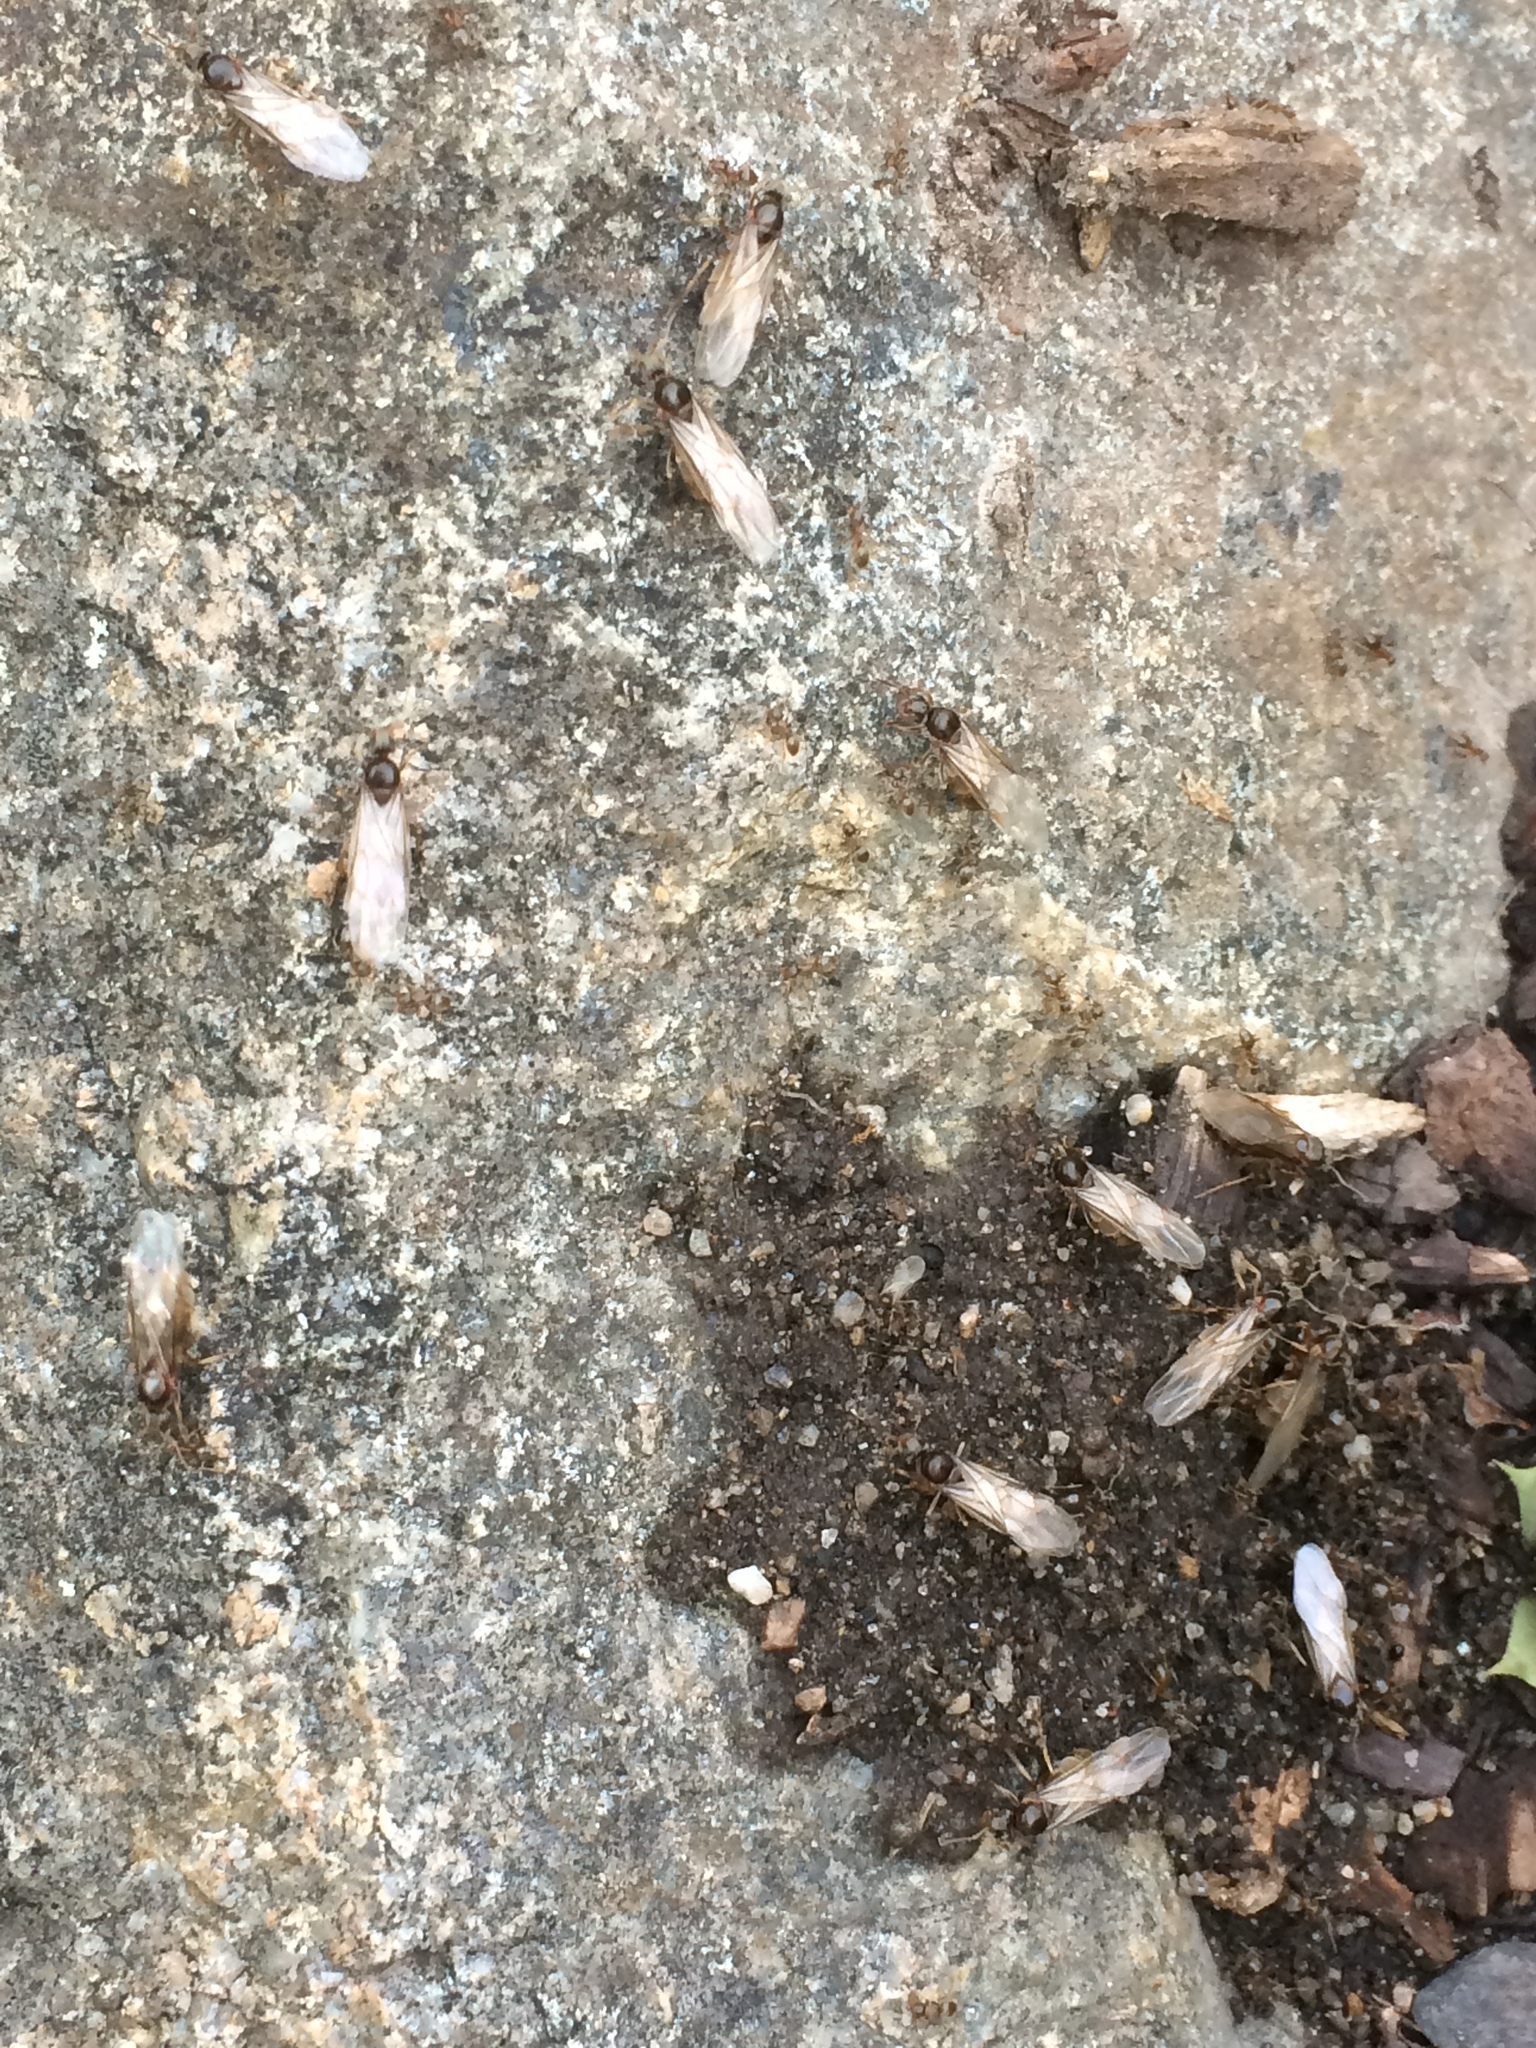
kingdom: Animalia
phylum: Arthropoda
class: Insecta
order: Hymenoptera
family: Formicidae
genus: Lasius
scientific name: Lasius neoniger
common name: Turfgrass ant
